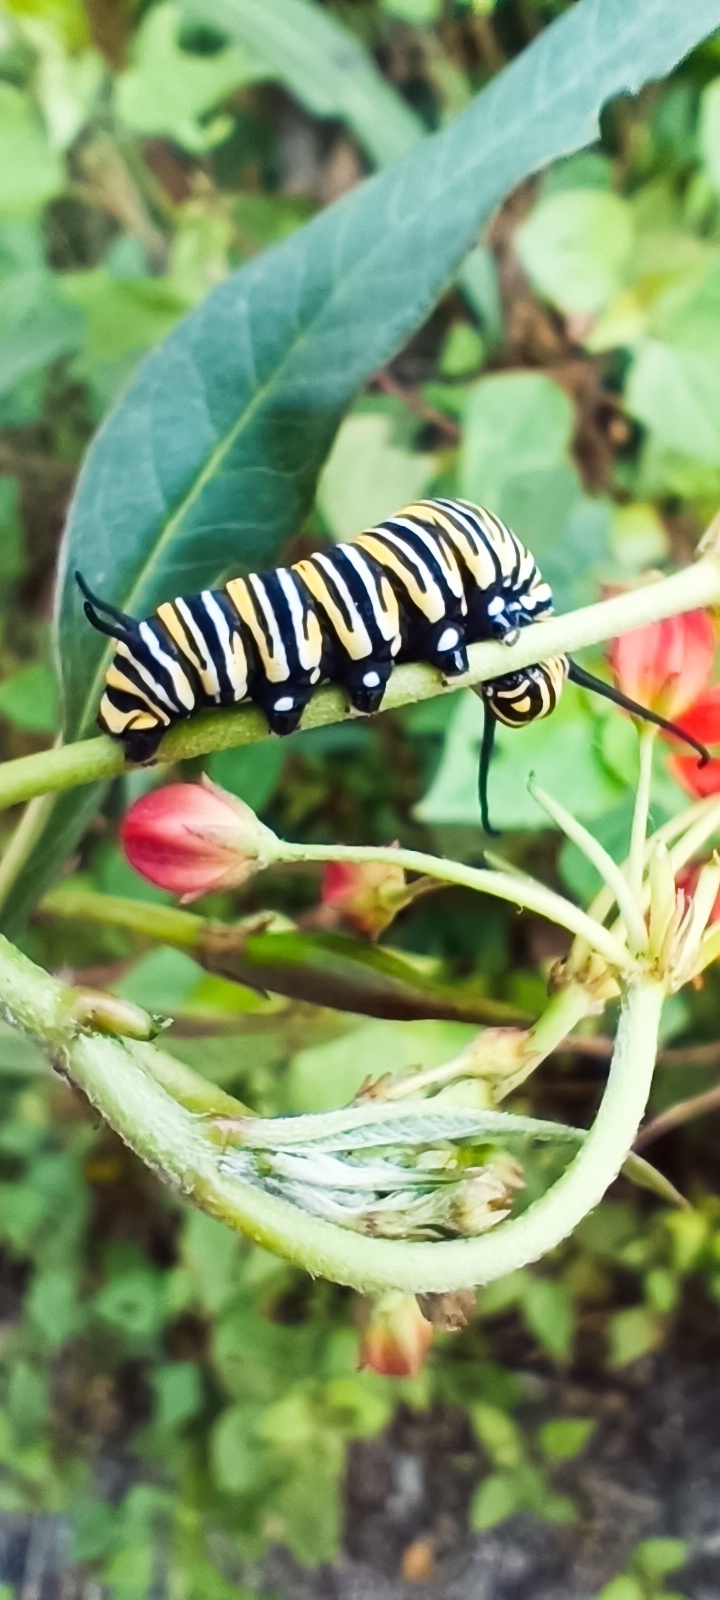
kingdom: Animalia
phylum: Arthropoda
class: Insecta
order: Lepidoptera
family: Nymphalidae
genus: Danaus
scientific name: Danaus plexippus
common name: Monarch
